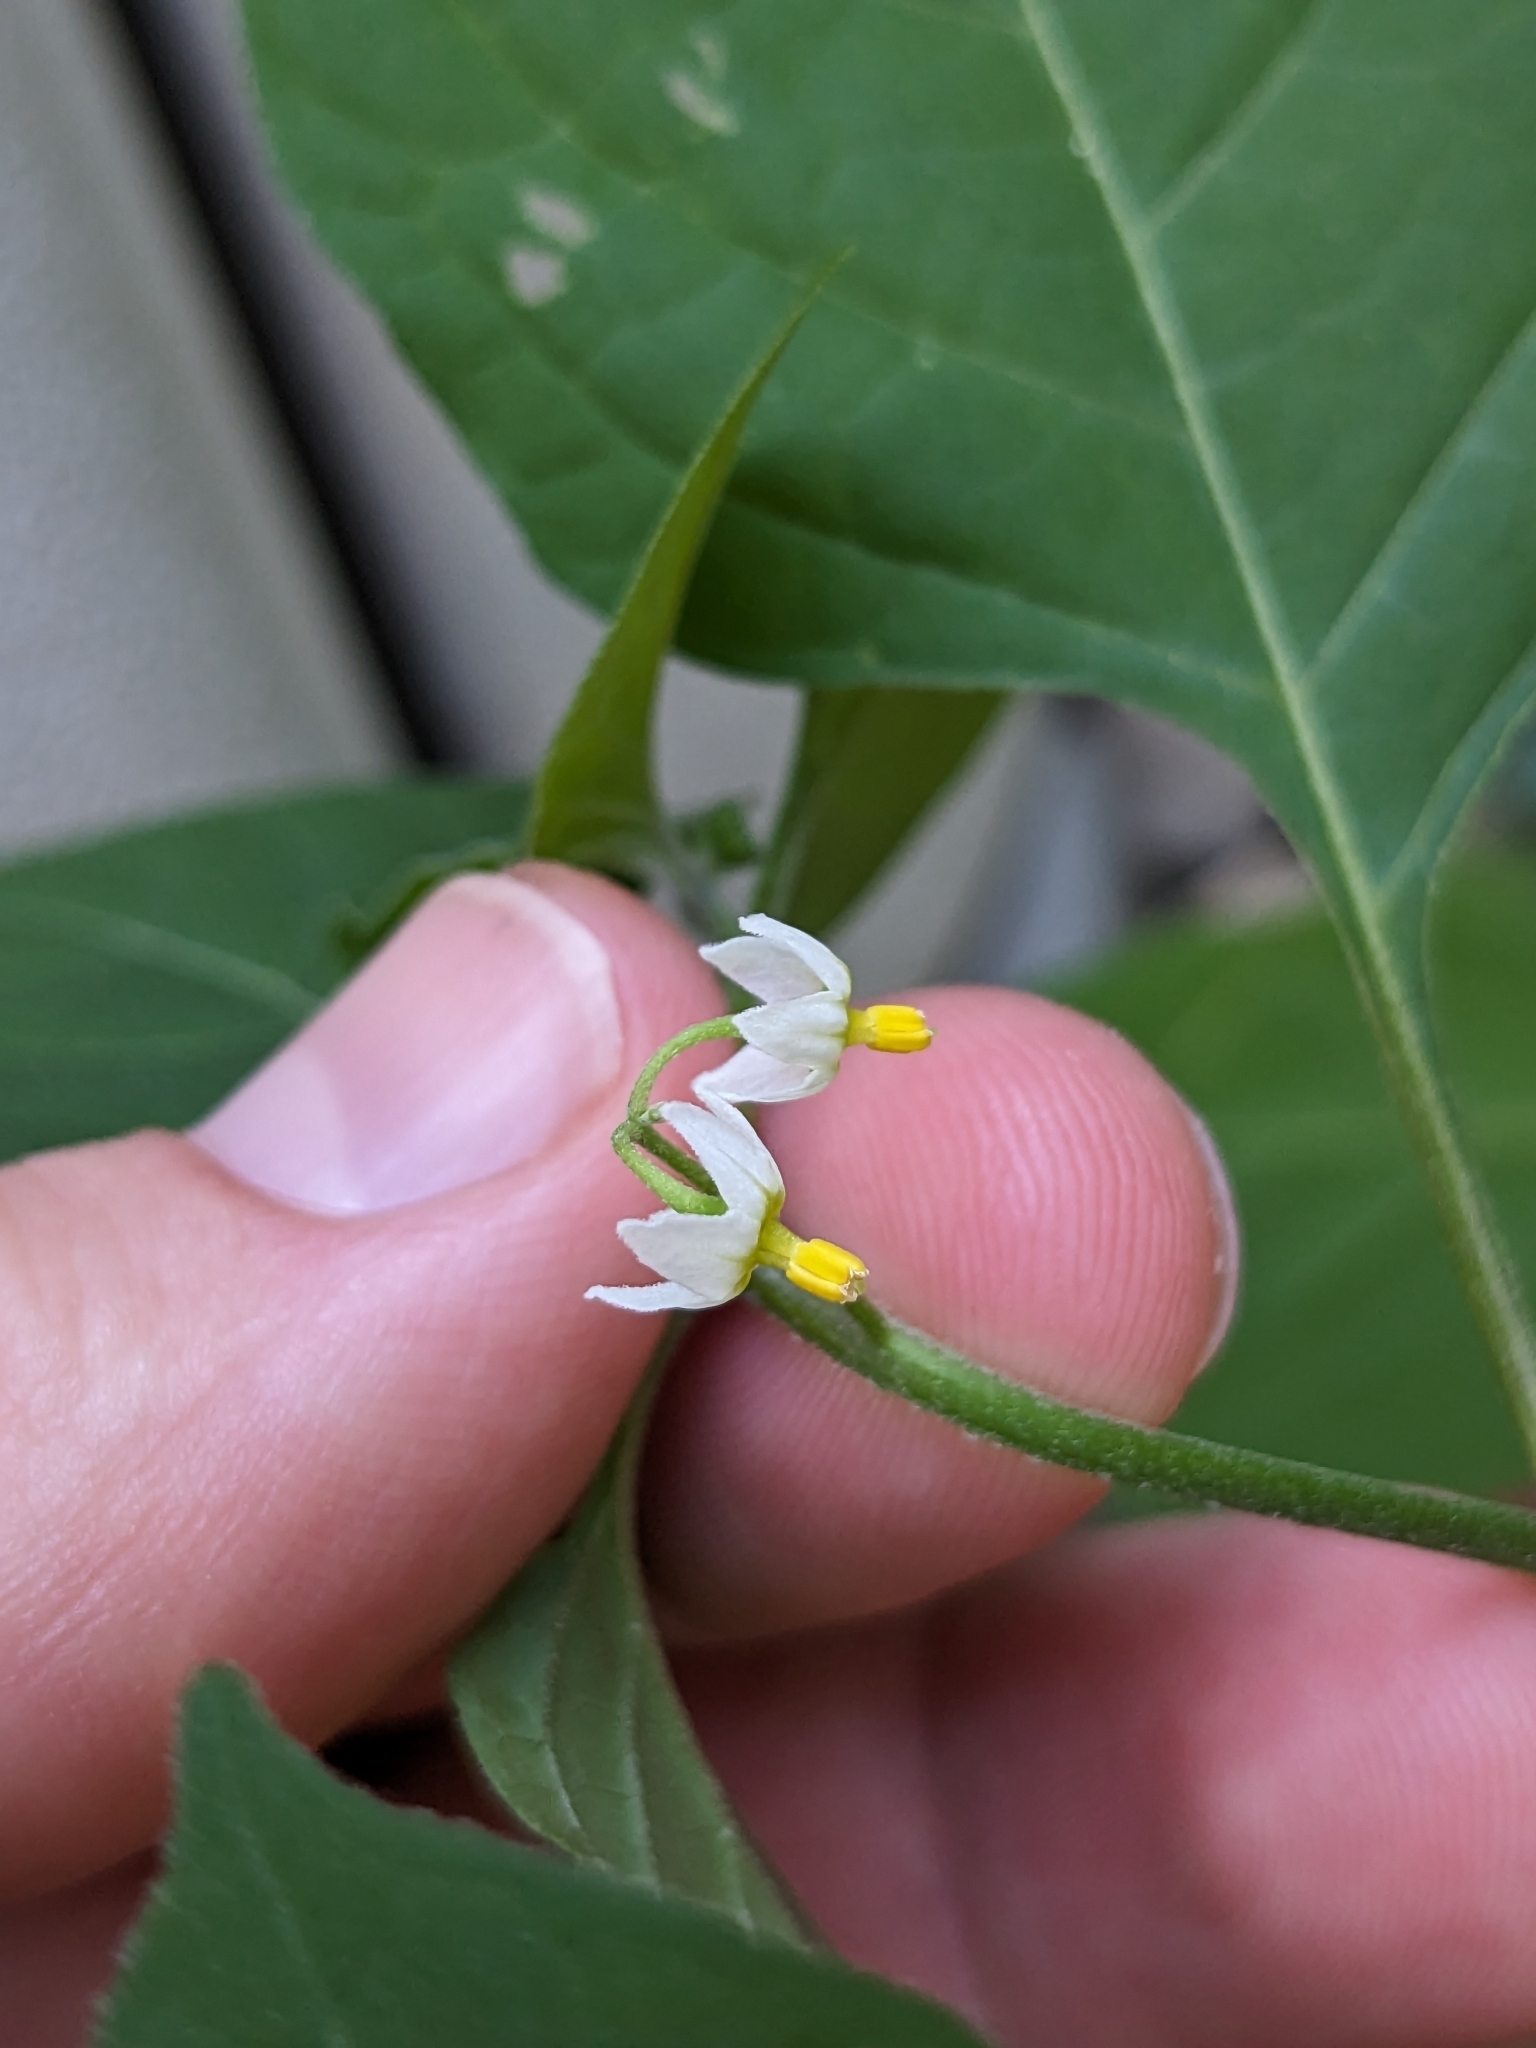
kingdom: Plantae
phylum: Tracheophyta
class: Magnoliopsida
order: Solanales
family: Solanaceae
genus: Solanum
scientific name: Solanum emulans
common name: Eastern black nightshade
